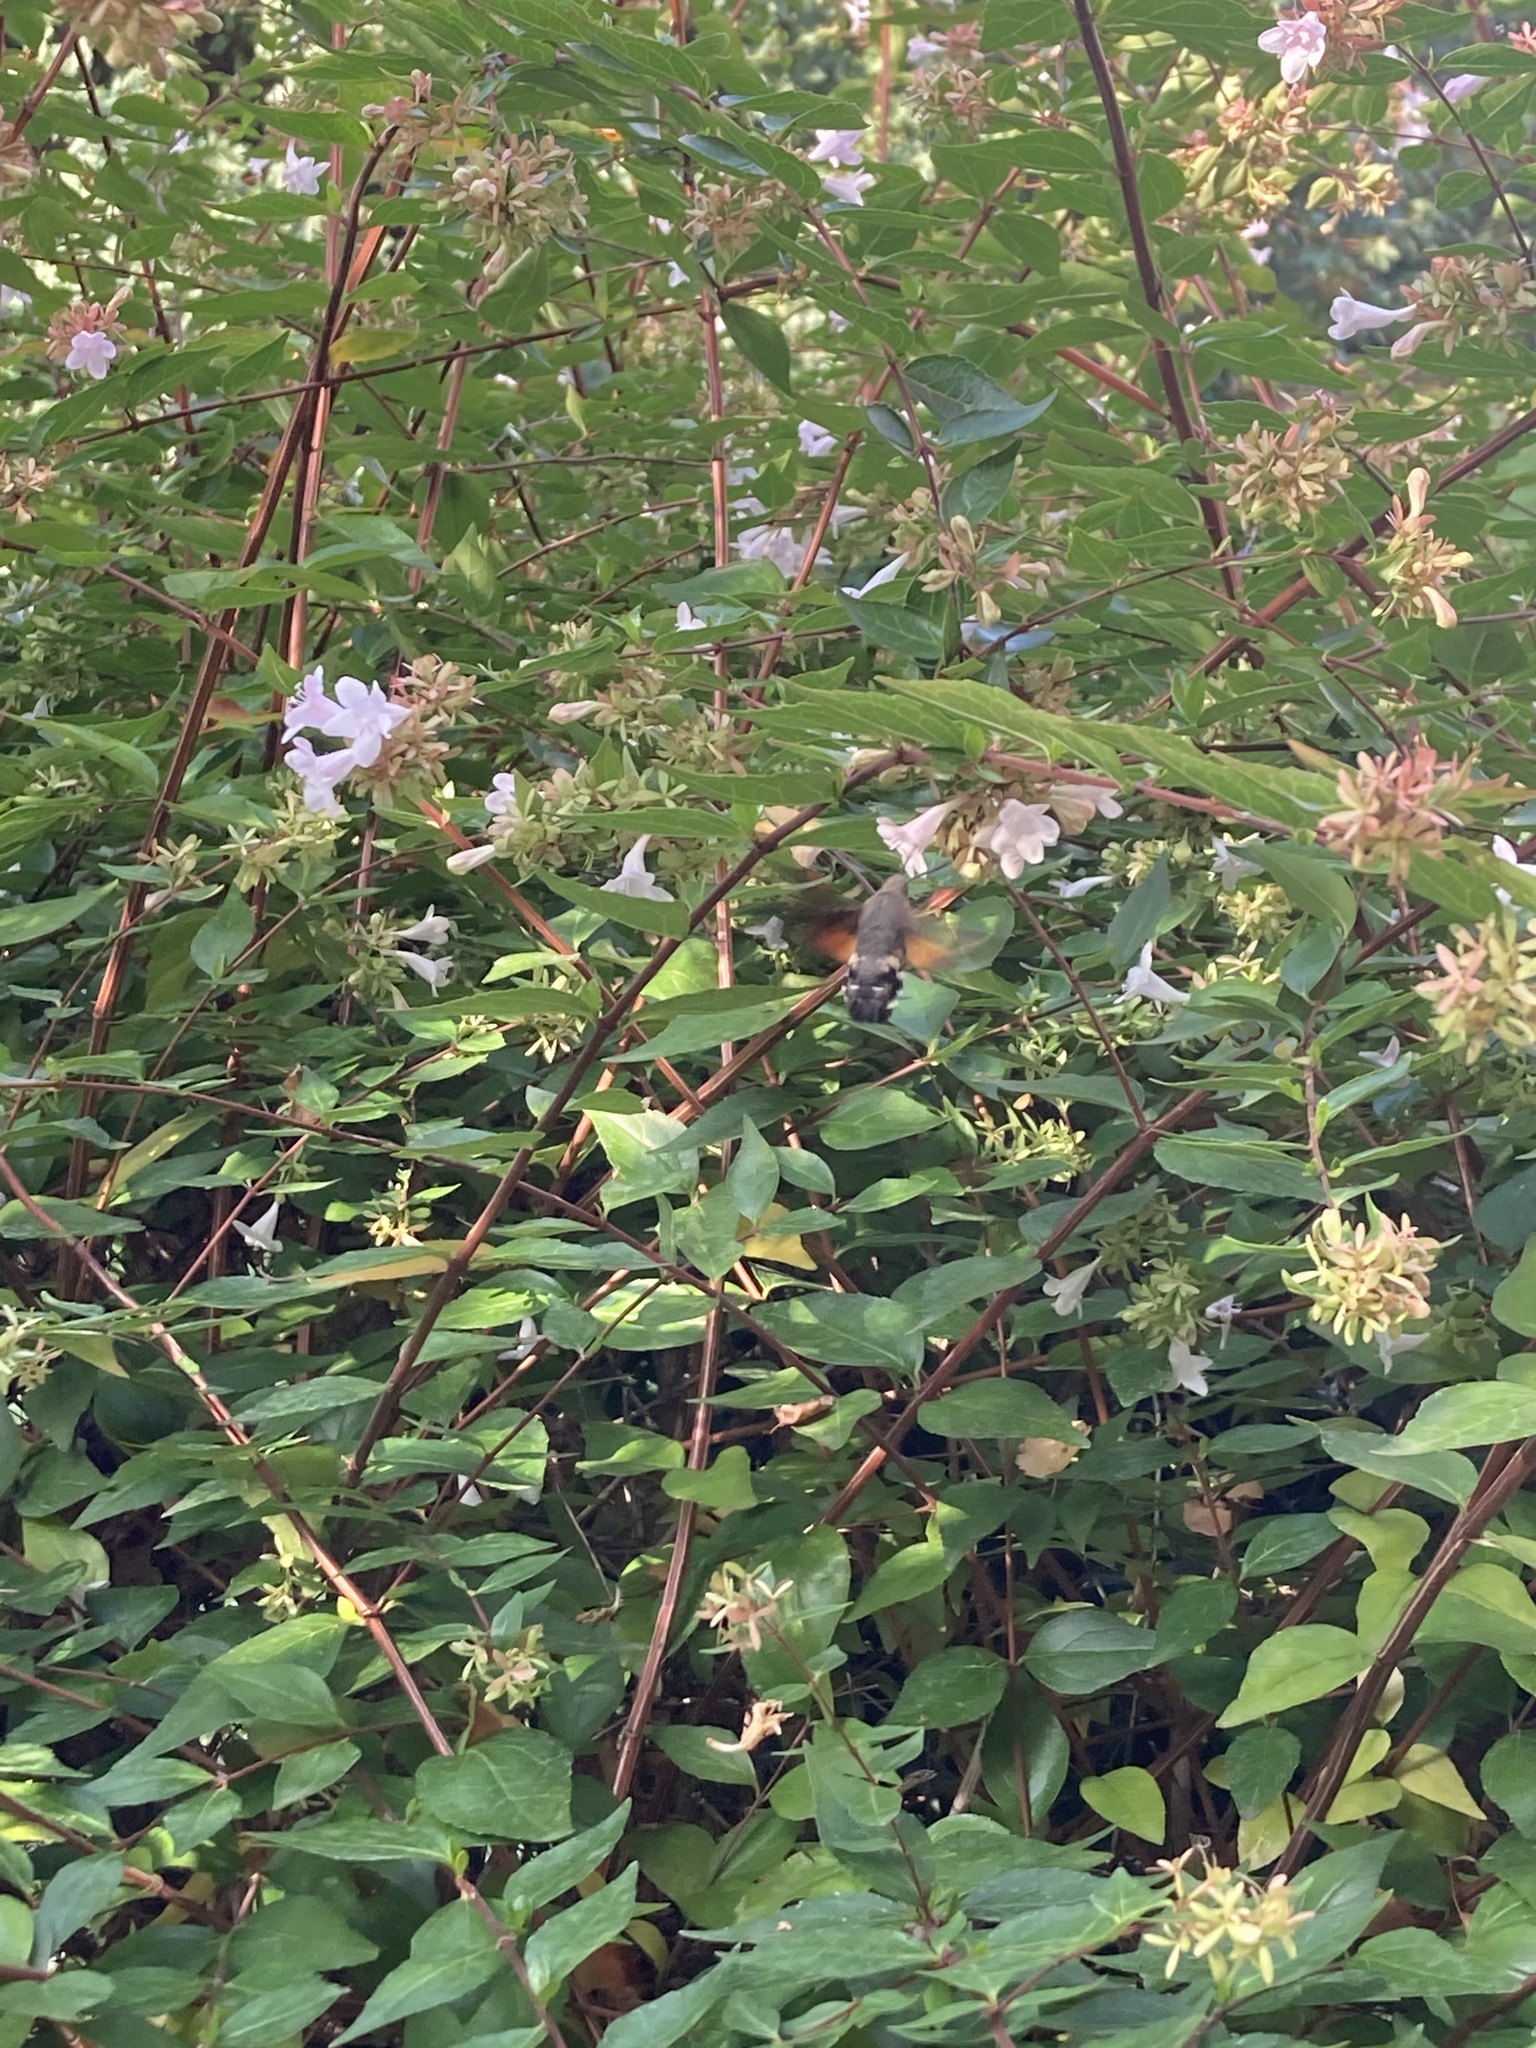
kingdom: Animalia
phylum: Arthropoda
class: Insecta
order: Lepidoptera
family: Sphingidae
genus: Macroglossum
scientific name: Macroglossum stellatarum
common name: Humming-bird hawk-moth
